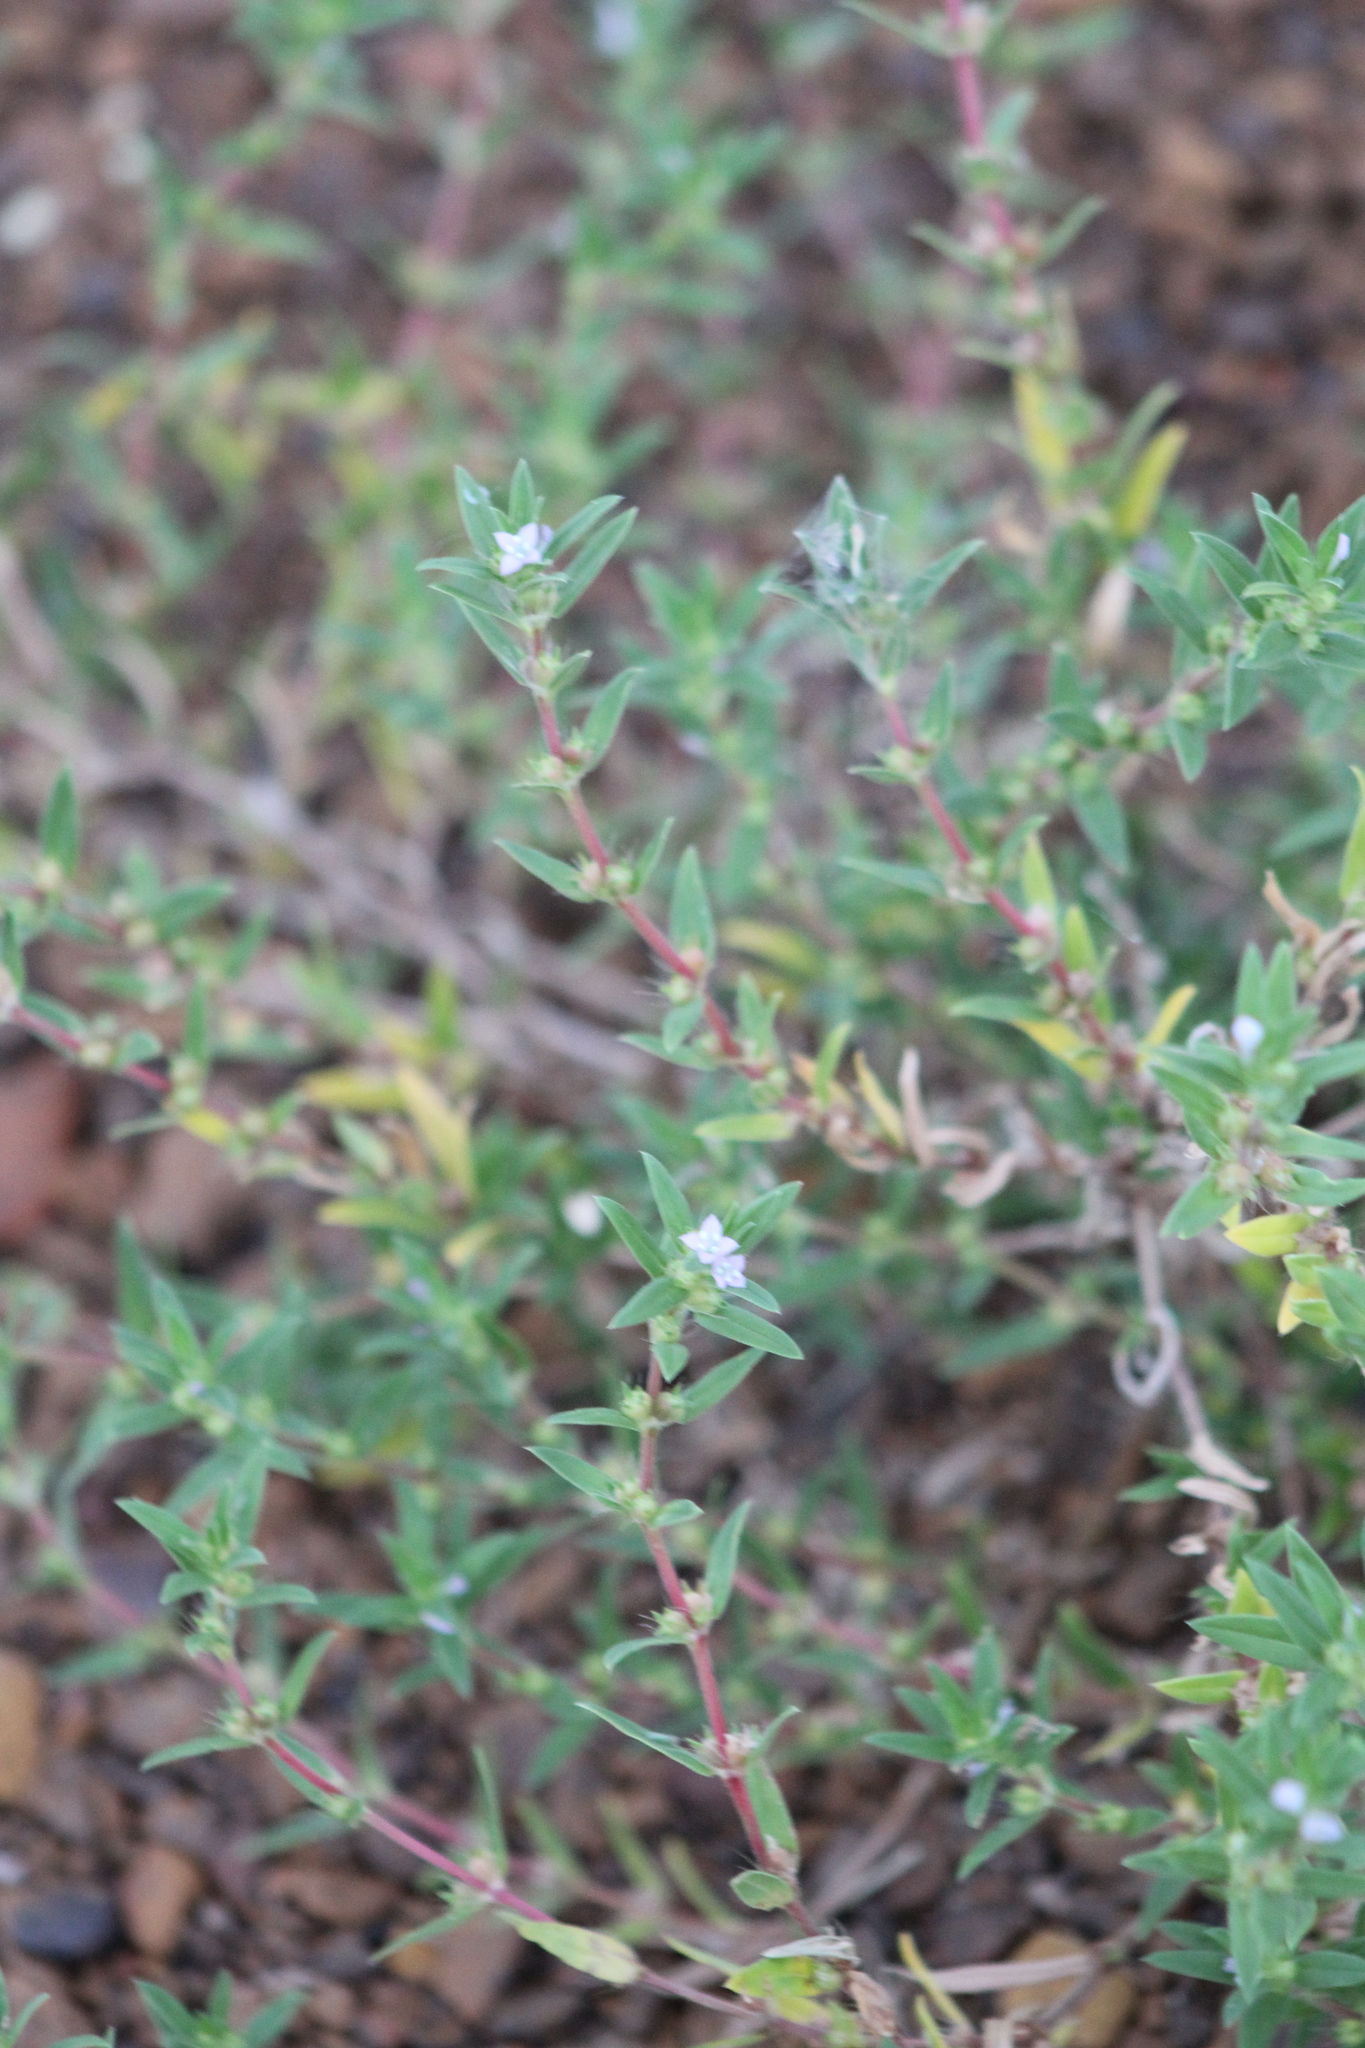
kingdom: Plantae
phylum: Tracheophyta
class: Magnoliopsida
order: Gentianales
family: Rubiaceae
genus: Hexasepalum
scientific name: Hexasepalum teres
